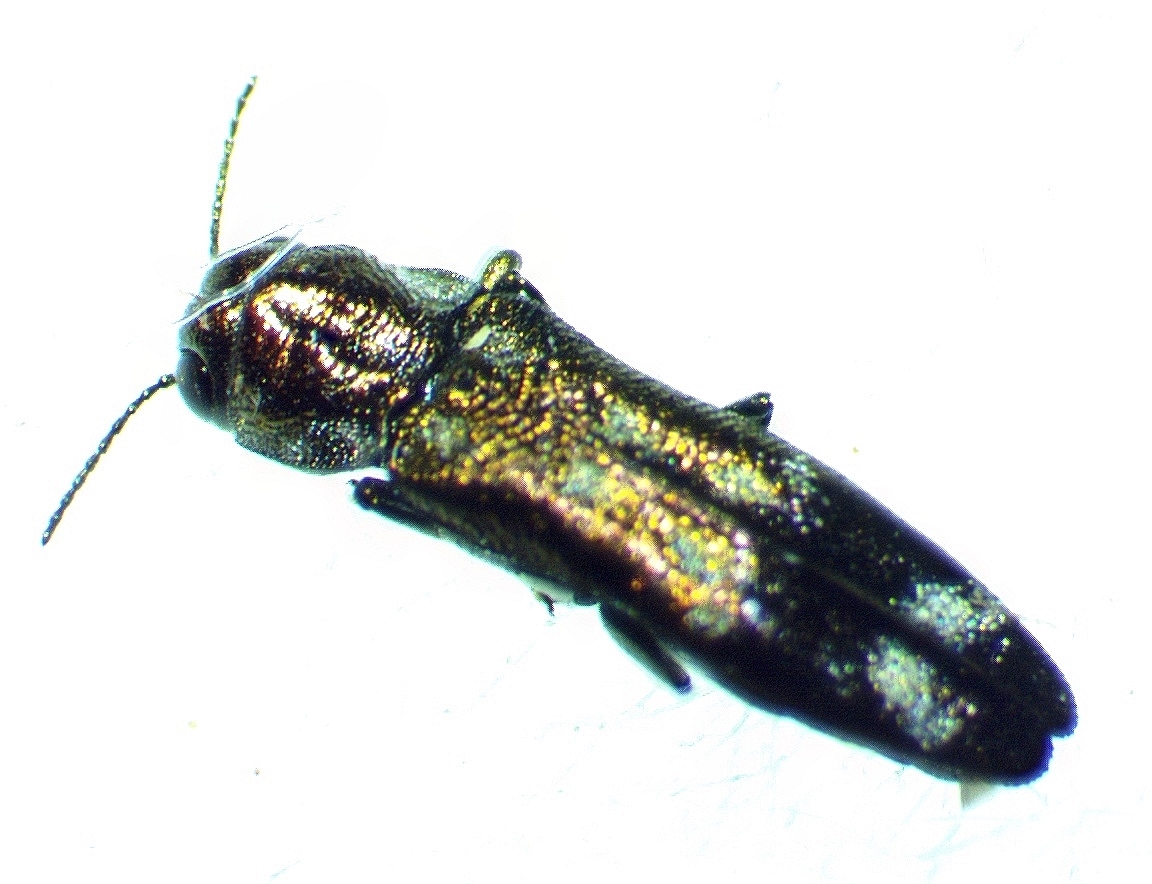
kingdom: Animalia
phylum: Arthropoda
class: Insecta
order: Coleoptera
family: Buprestidae
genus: Agrilus
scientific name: Agrilus subcinctus
